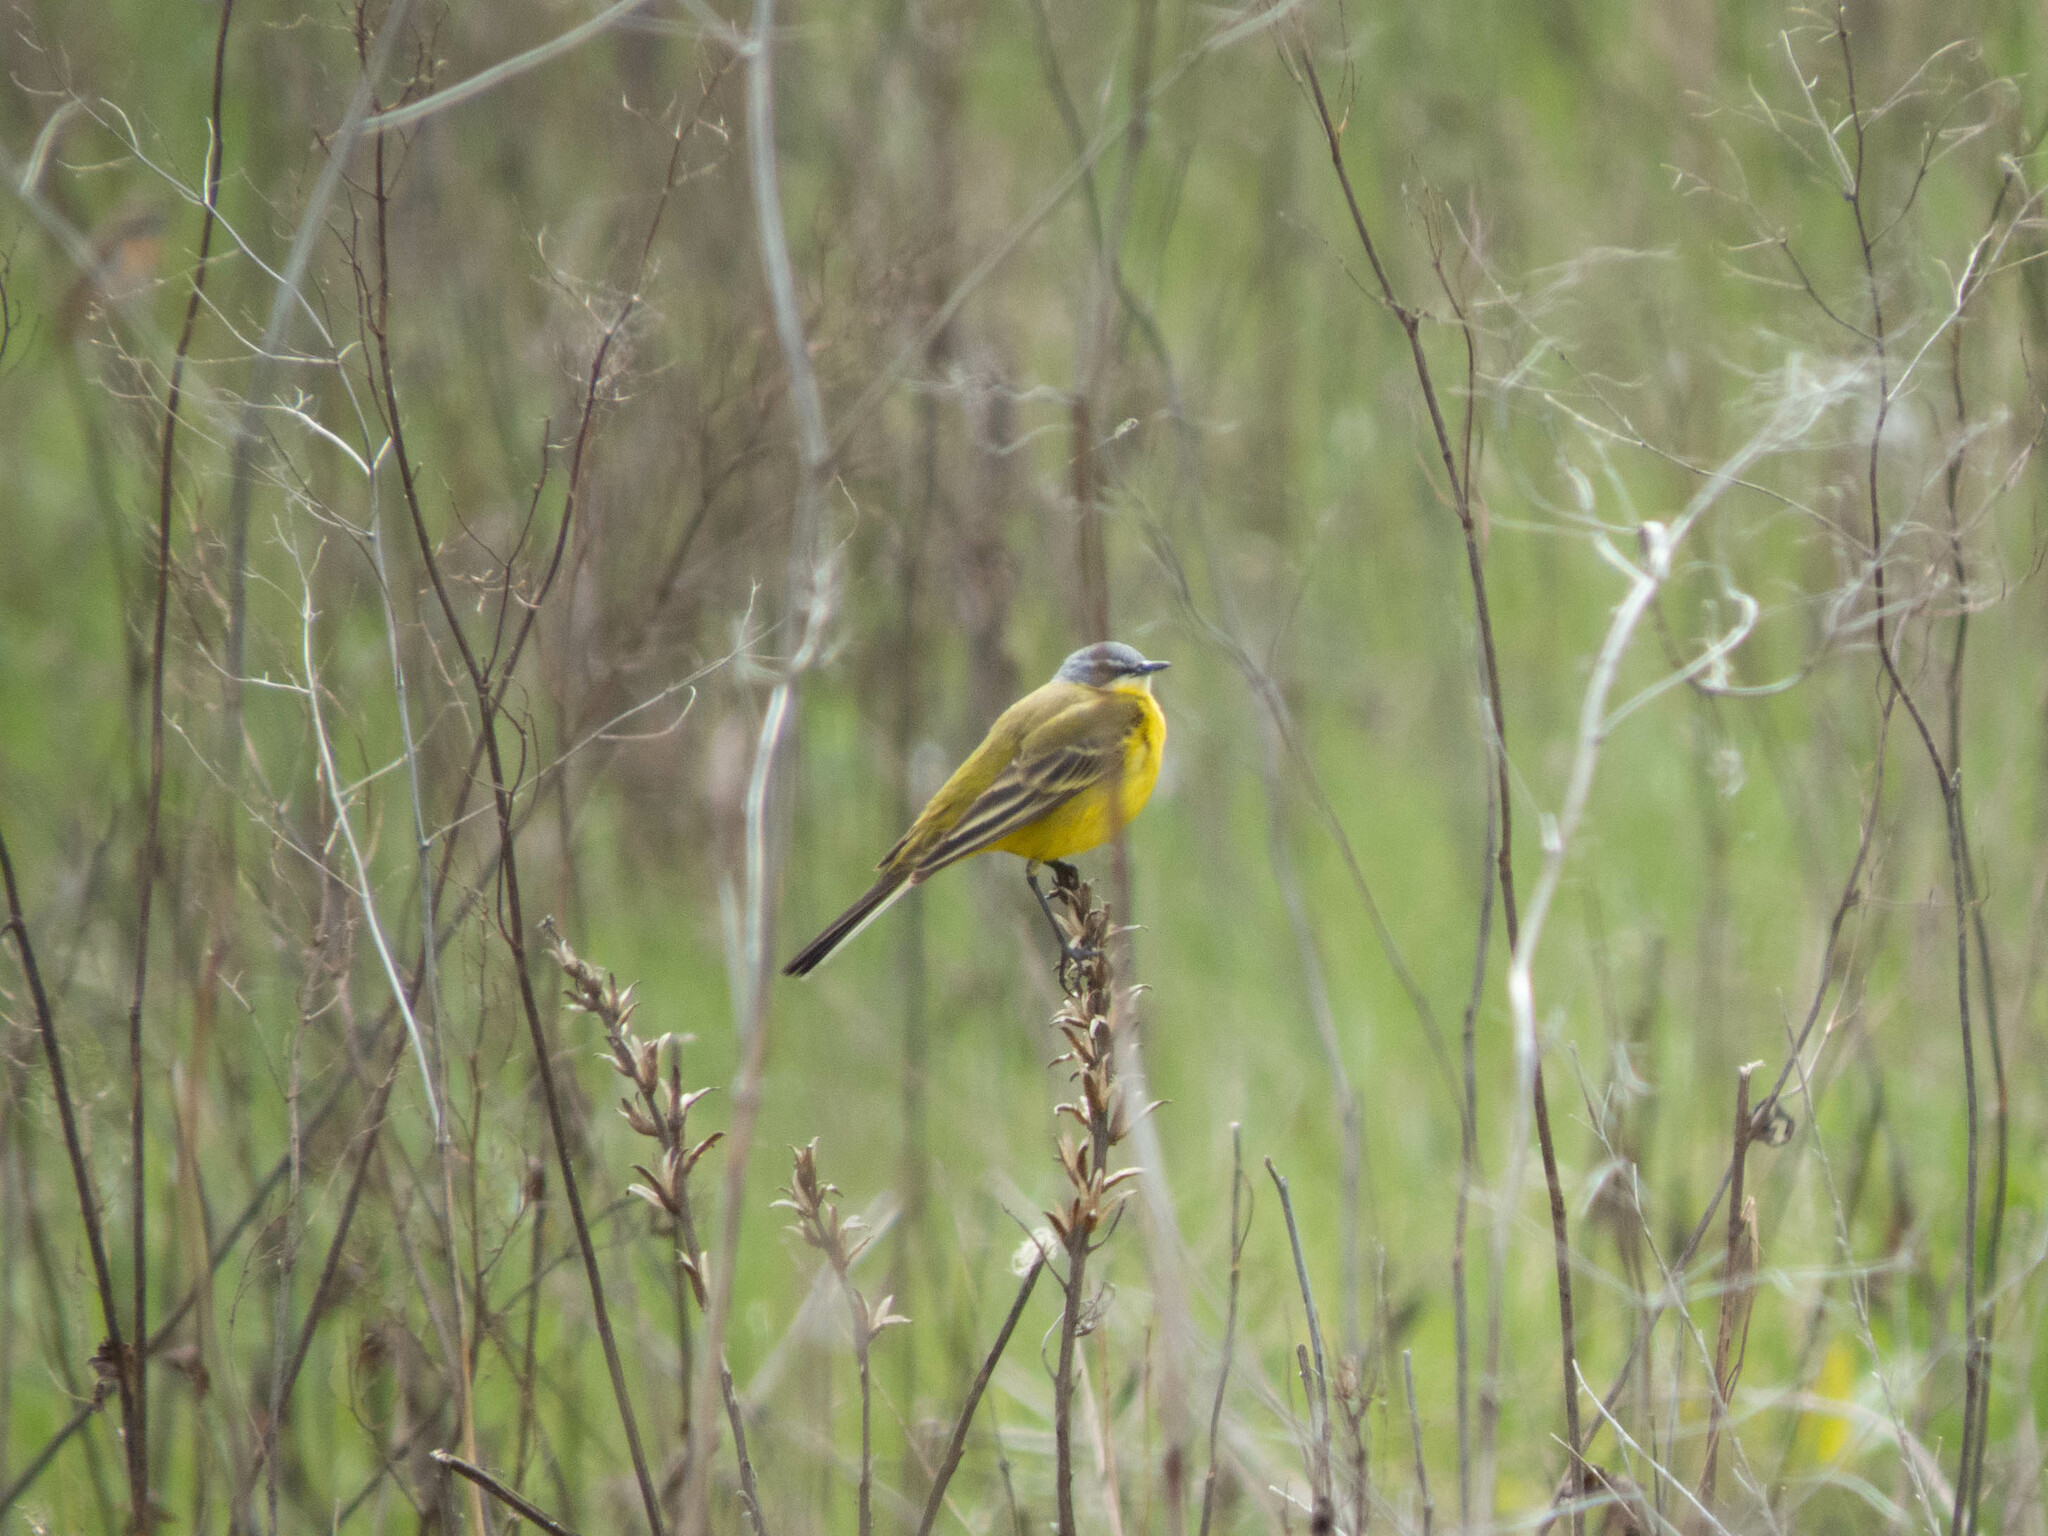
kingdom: Animalia
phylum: Chordata
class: Aves
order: Passeriformes
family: Motacillidae
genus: Motacilla
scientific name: Motacilla flava
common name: Western yellow wagtail
